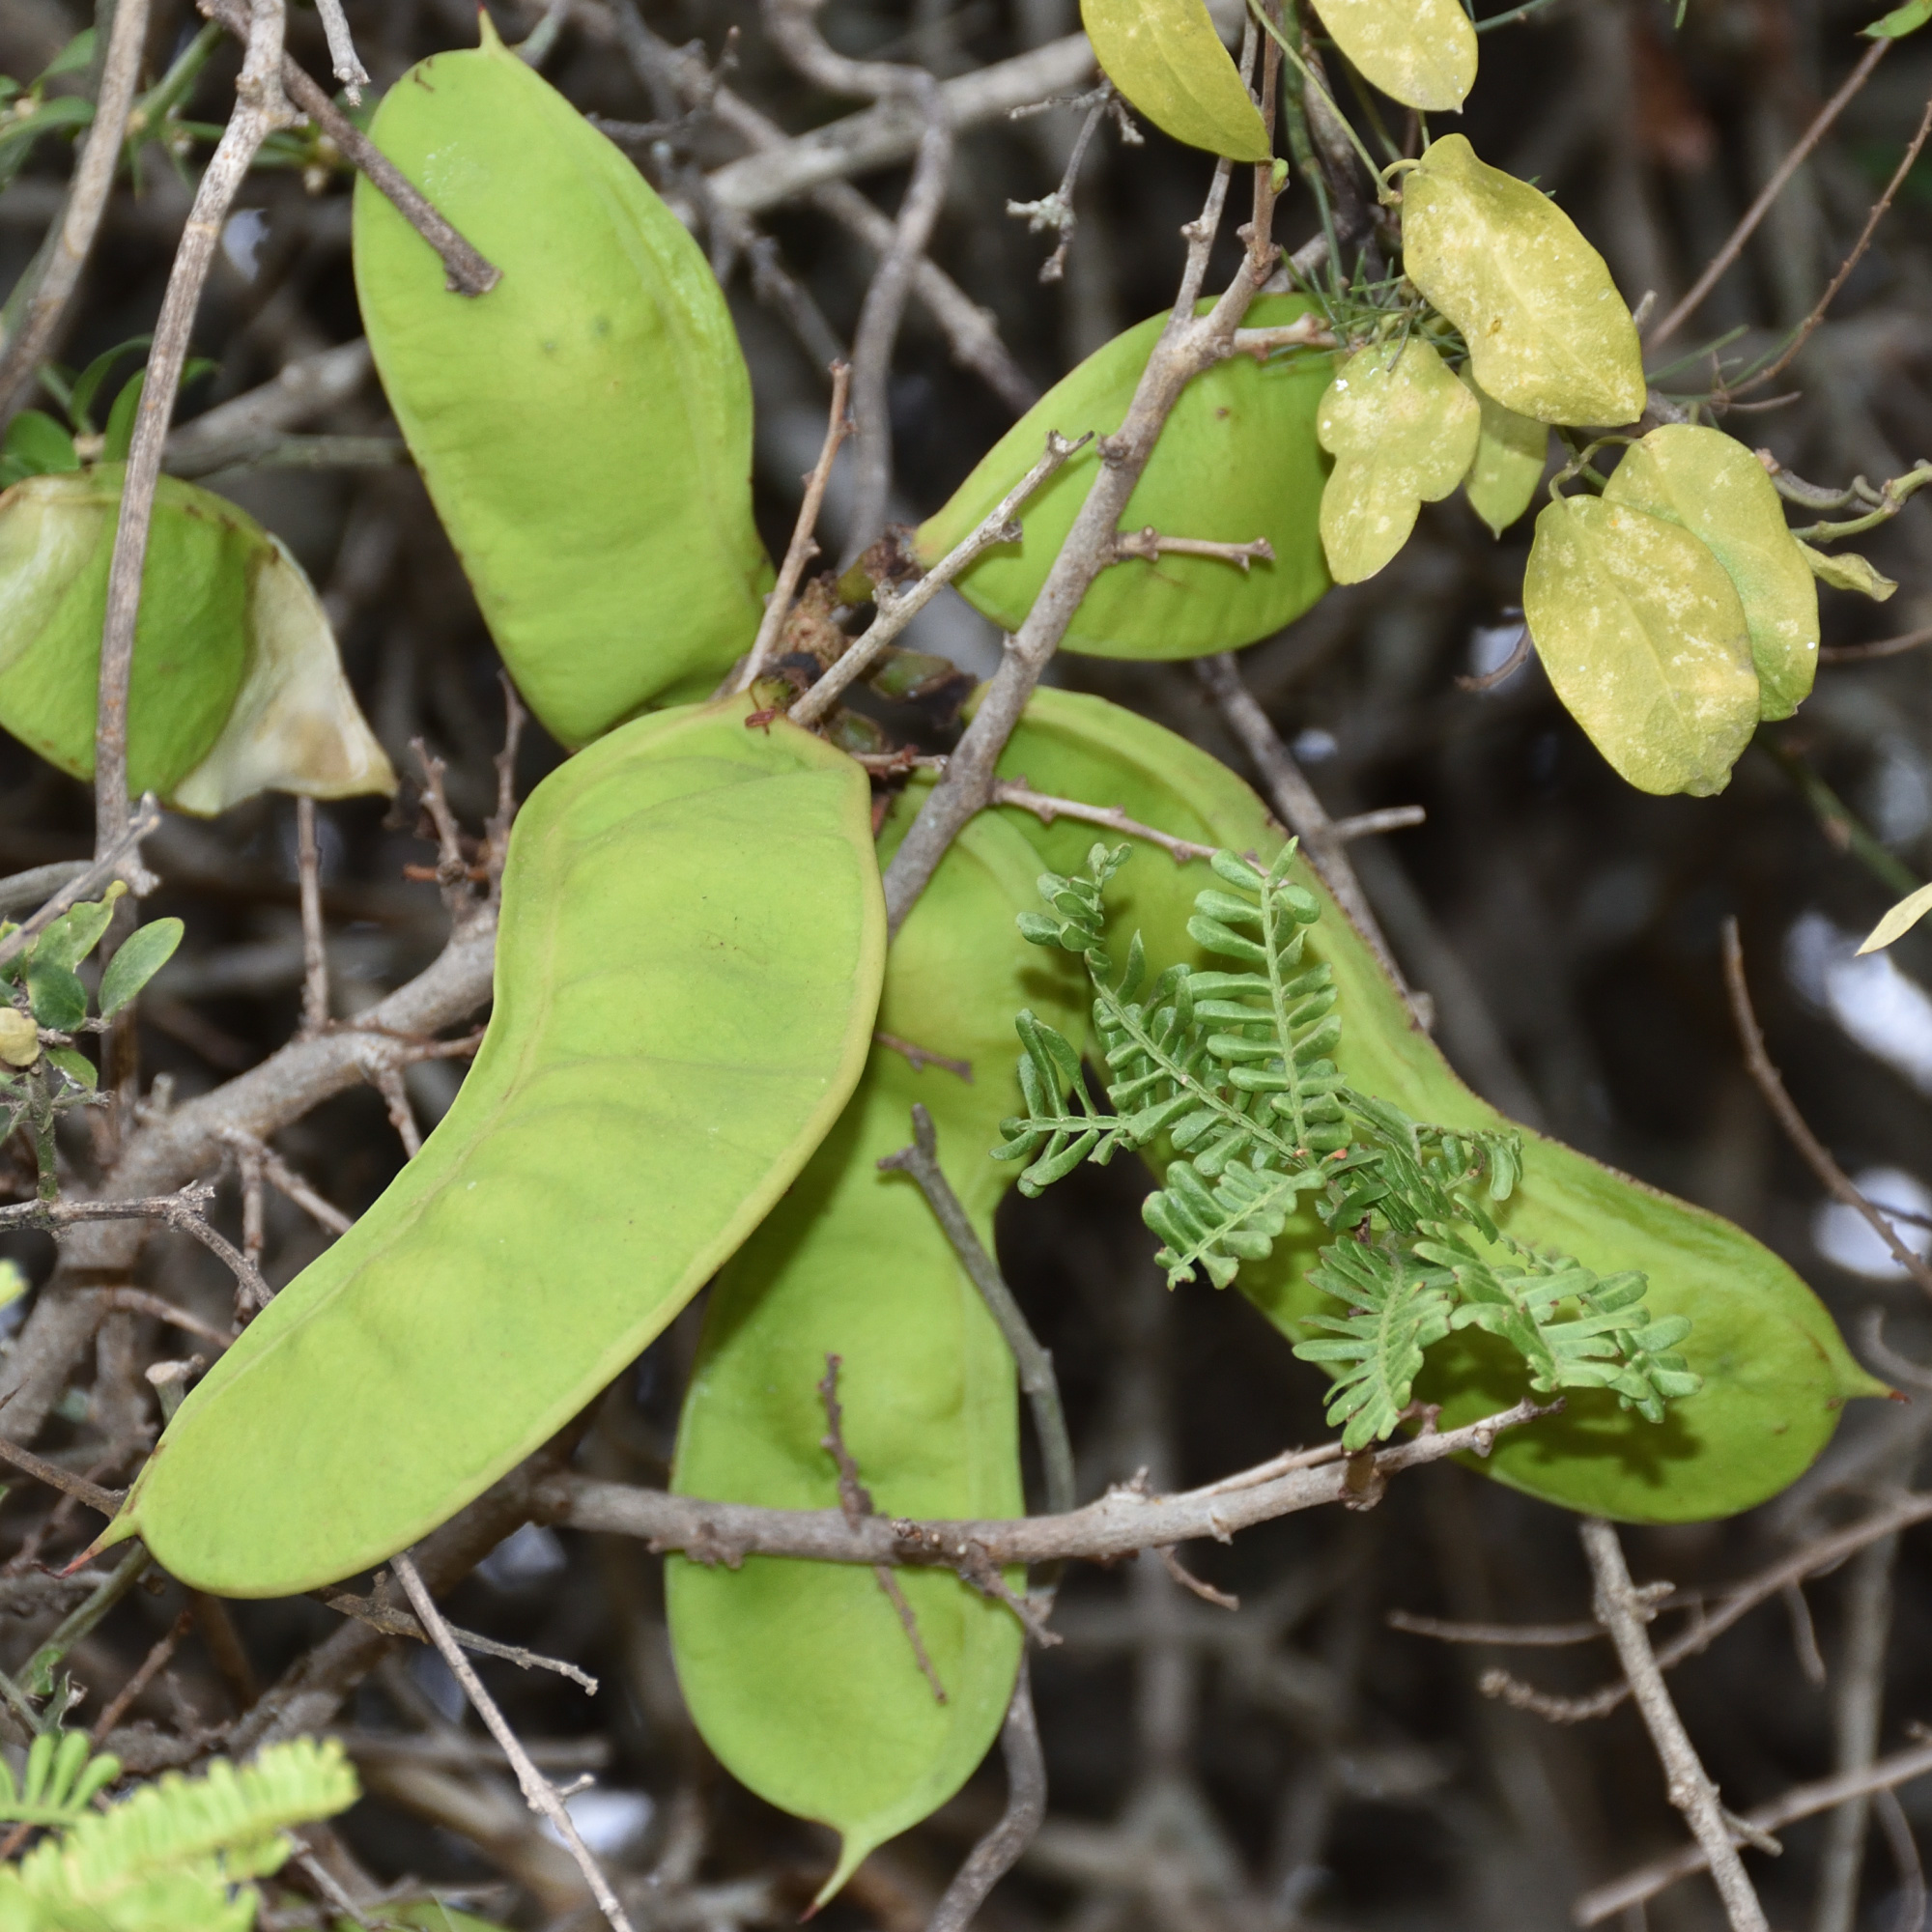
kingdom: Plantae
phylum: Tracheophyta
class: Magnoliopsida
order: Fabales
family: Fabaceae
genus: Schotia
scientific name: Schotia afra
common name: Hottentot's bean
